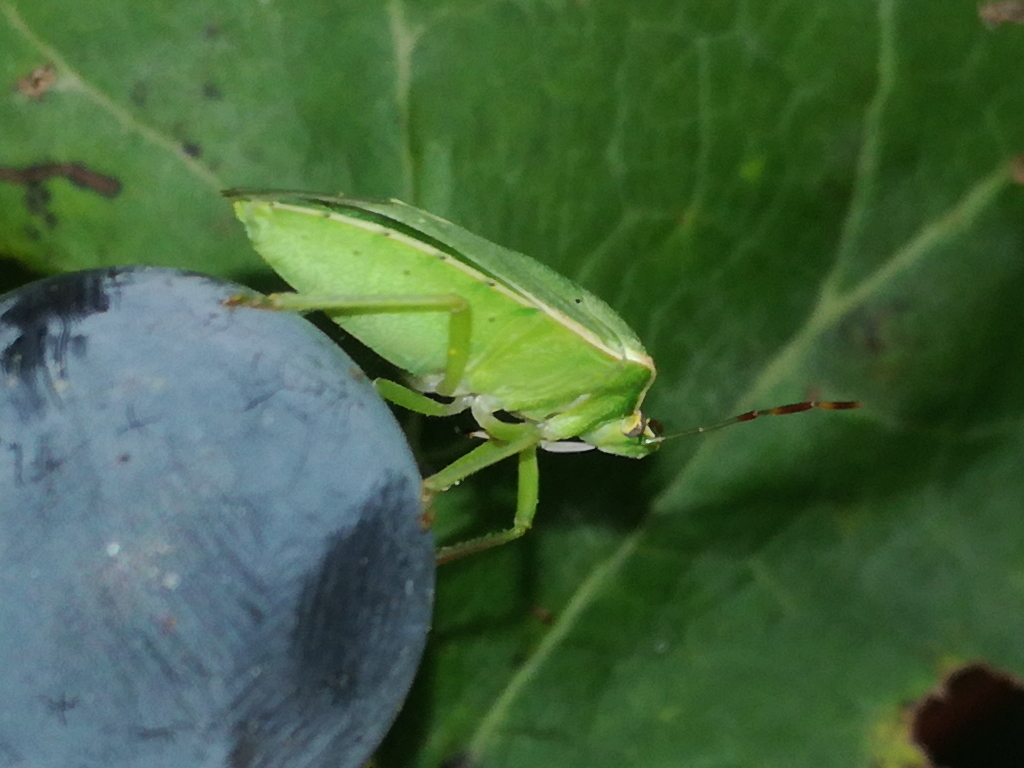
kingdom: Animalia
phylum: Arthropoda
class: Insecta
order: Hemiptera
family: Pentatomidae
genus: Nezara
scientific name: Nezara viridula
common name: Southern green stink bug
